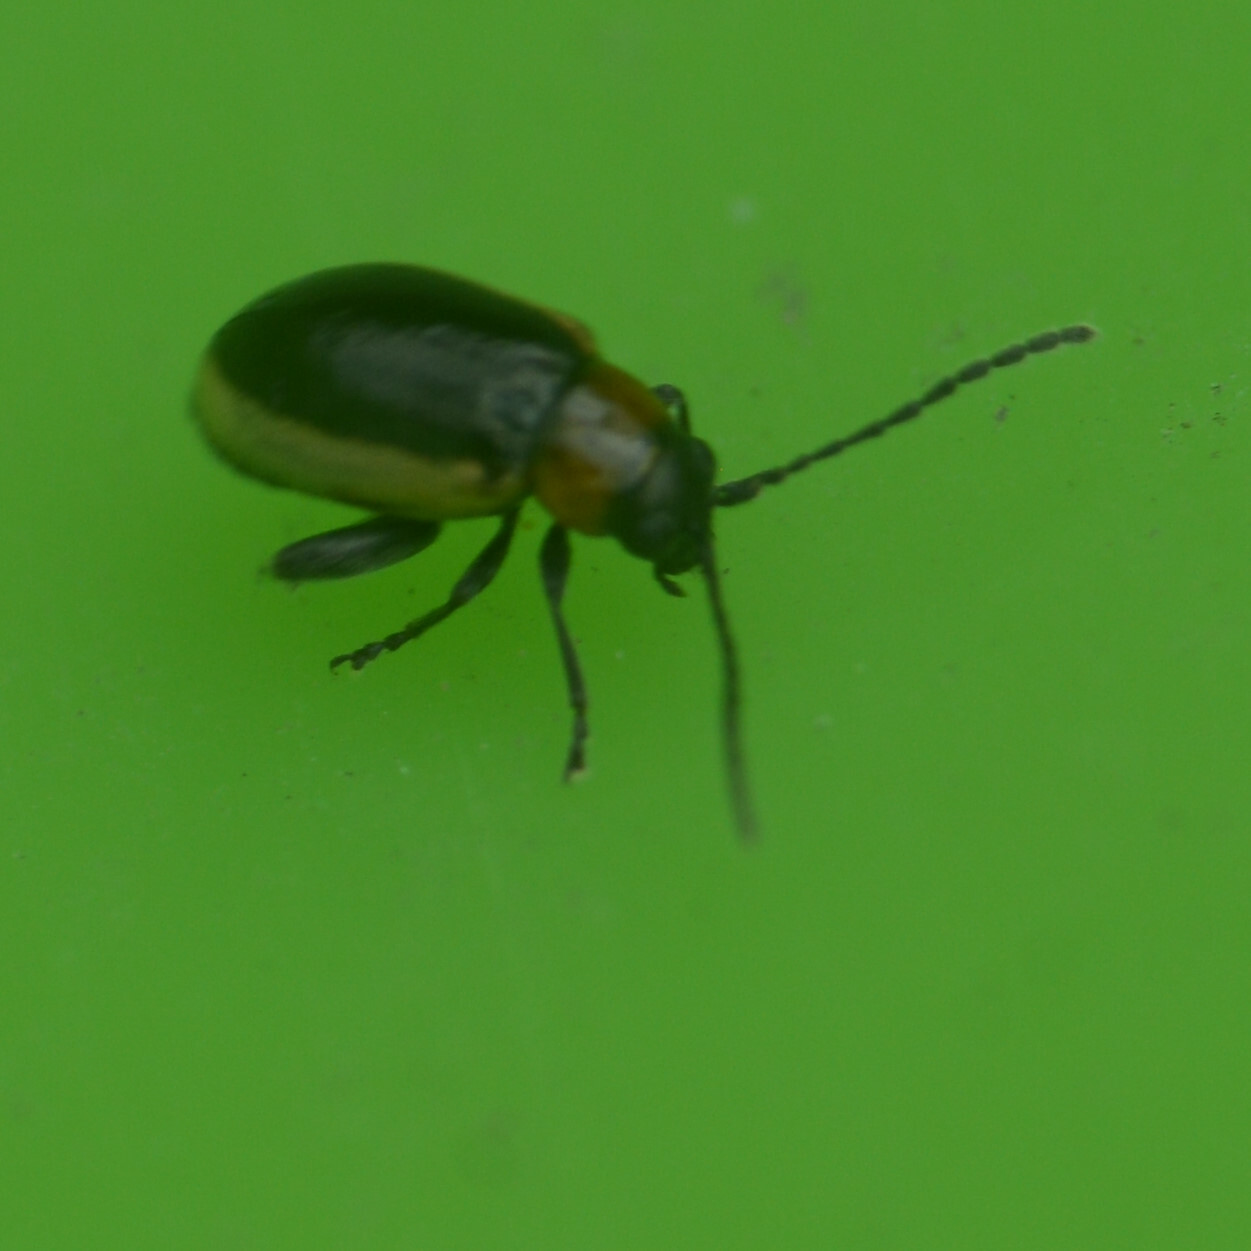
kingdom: Animalia
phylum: Arthropoda
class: Insecta
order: Coleoptera
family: Chrysomelidae
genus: Longitarsus
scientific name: Longitarsus dorsalis
